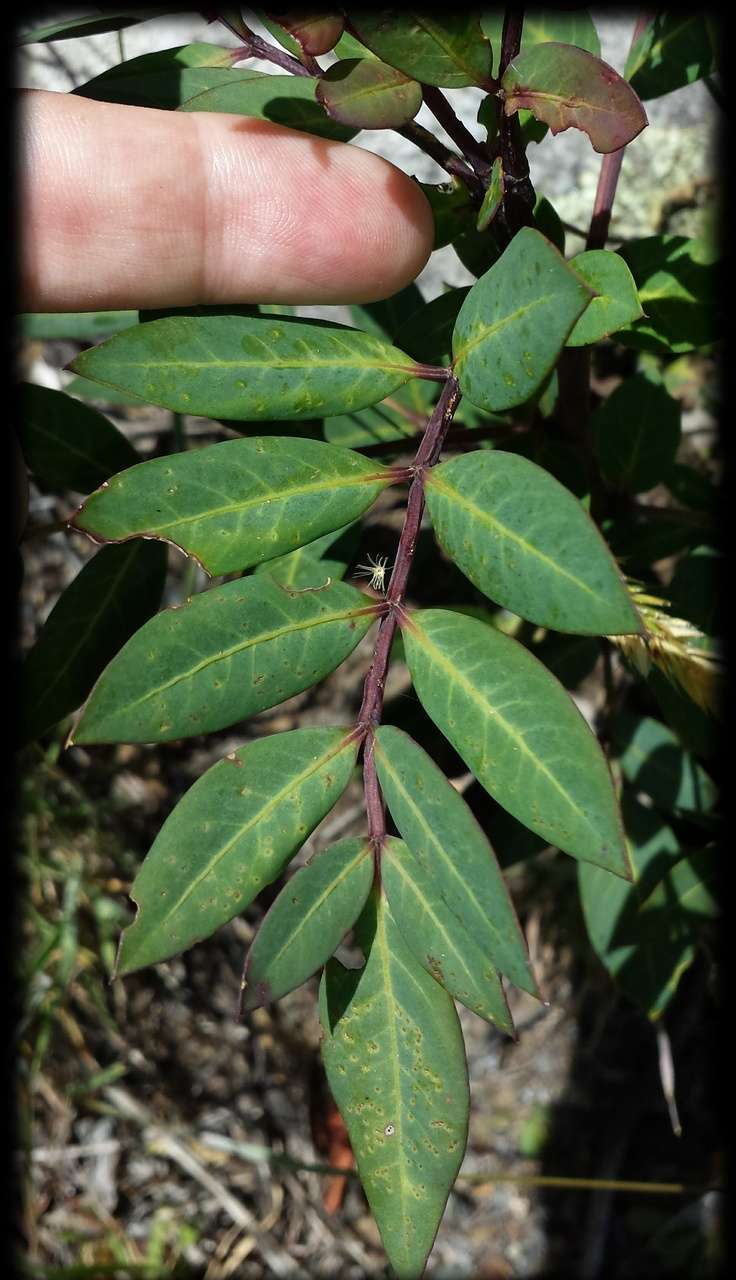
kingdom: Plantae
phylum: Tracheophyta
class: Magnoliopsida
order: Apiales
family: Araliaceae
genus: Polyscias
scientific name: Polyscias sambucifolia
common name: Elderberry-ash
